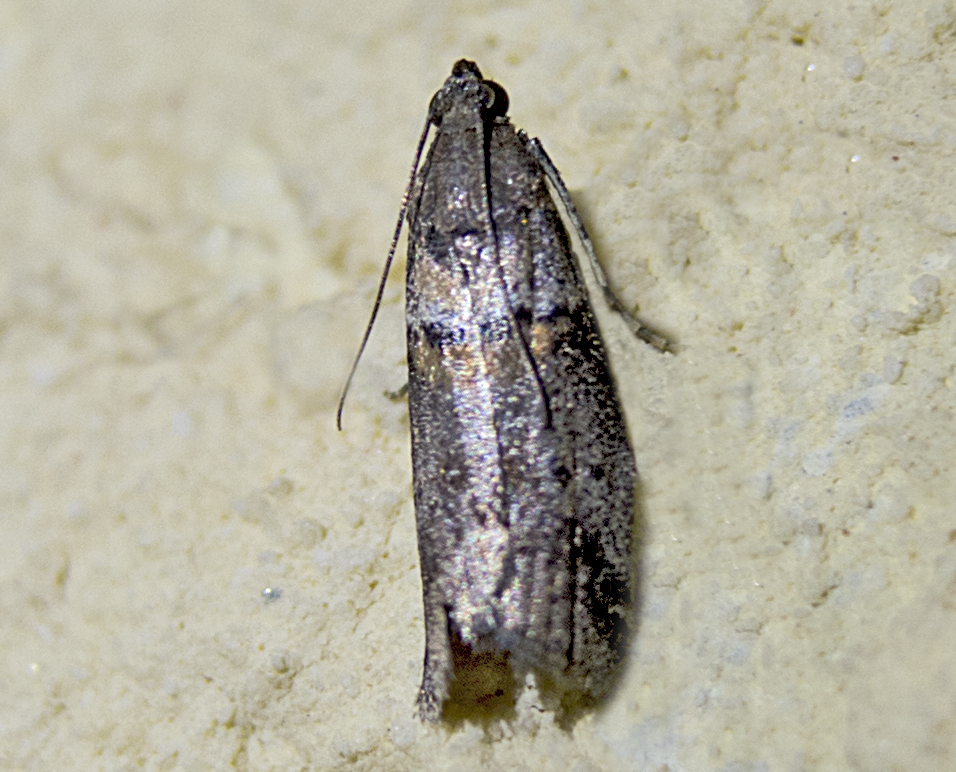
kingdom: Animalia
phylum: Arthropoda
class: Insecta
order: Lepidoptera
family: Pyralidae
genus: Acrobasis
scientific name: Acrobasis
